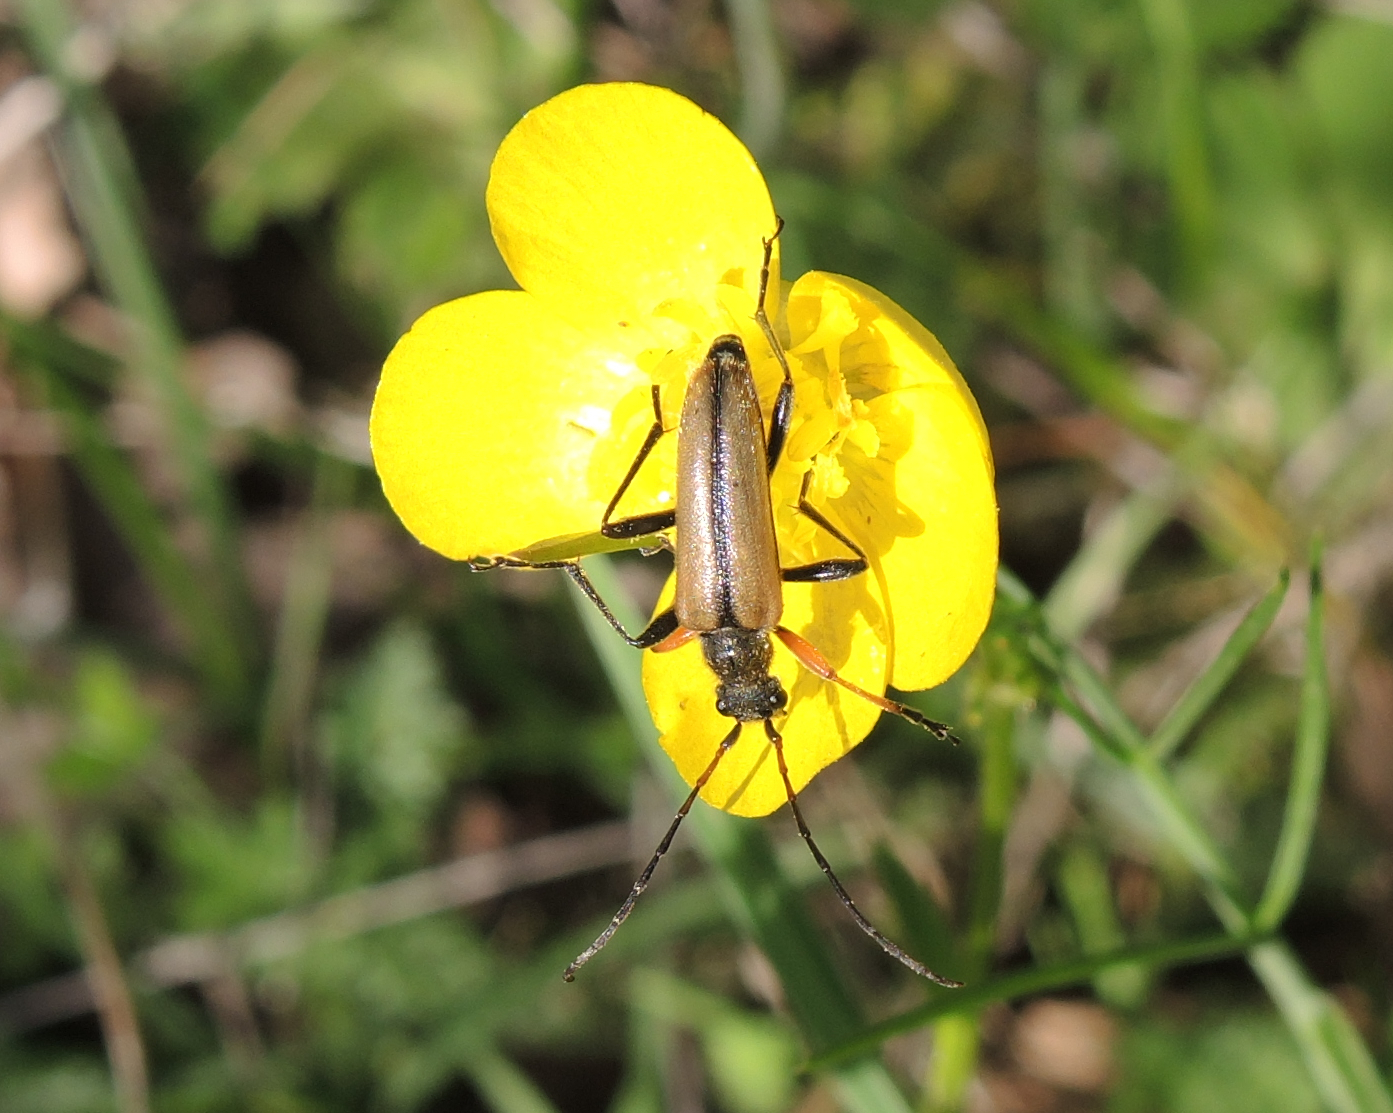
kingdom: Animalia
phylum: Arthropoda
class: Insecta
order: Coleoptera
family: Cerambycidae
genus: Cortodera
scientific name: Cortodera flavimana
